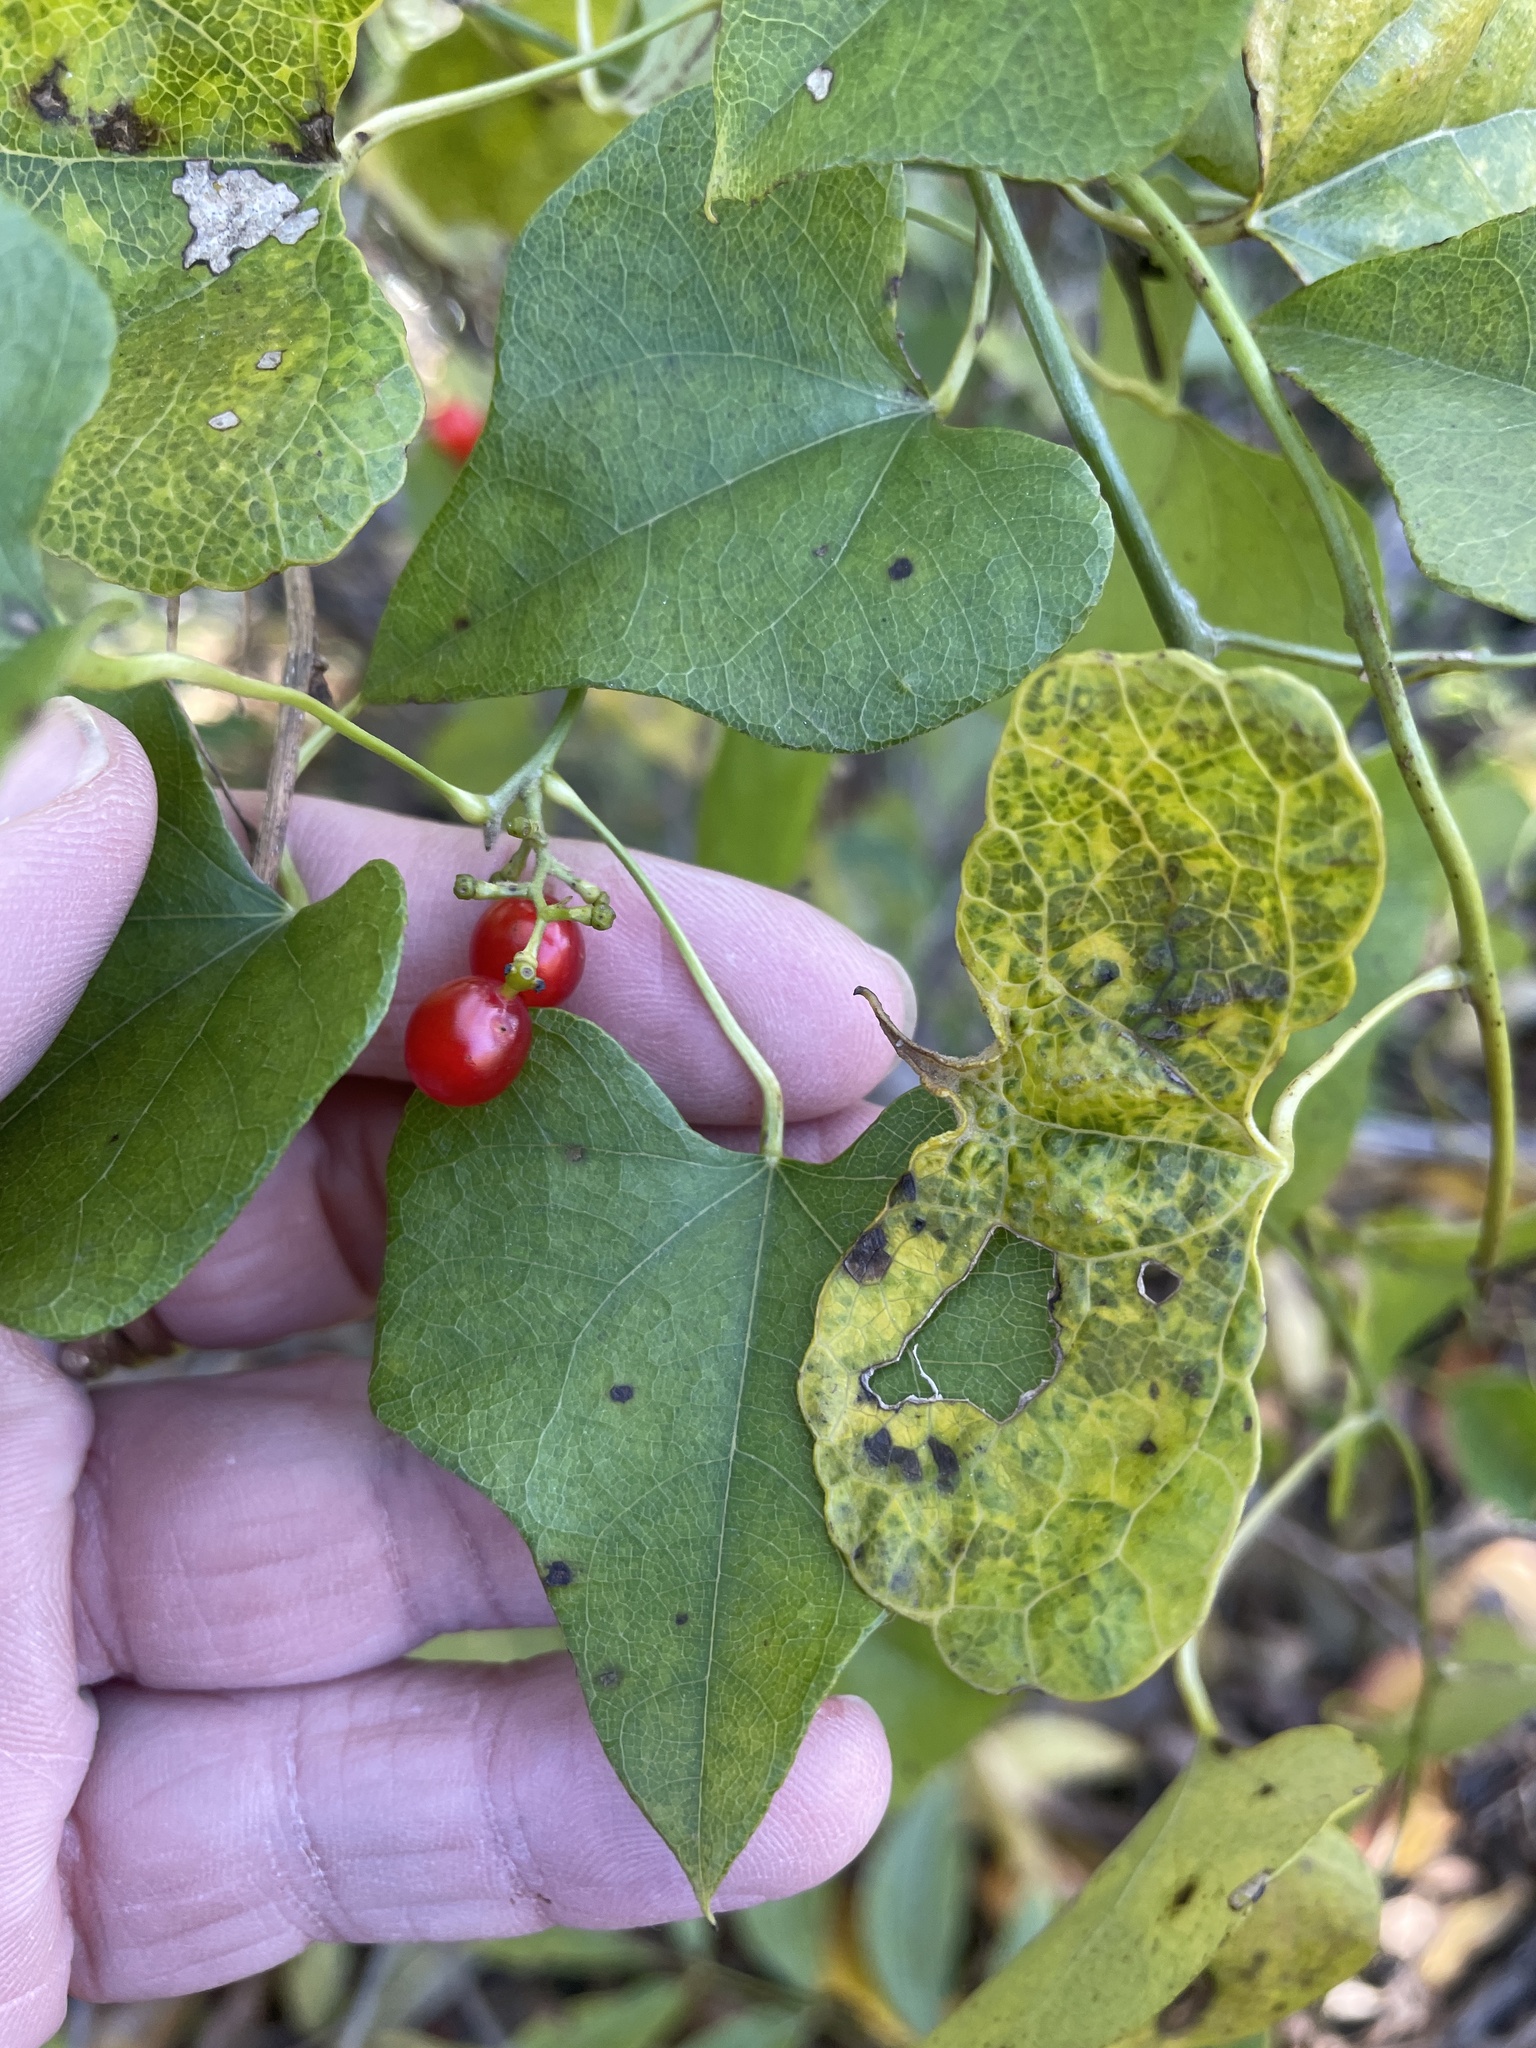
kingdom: Plantae
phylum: Tracheophyta
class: Magnoliopsida
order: Ranunculales
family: Menispermaceae
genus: Cocculus
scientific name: Cocculus carolinus
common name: Carolina moonseed
